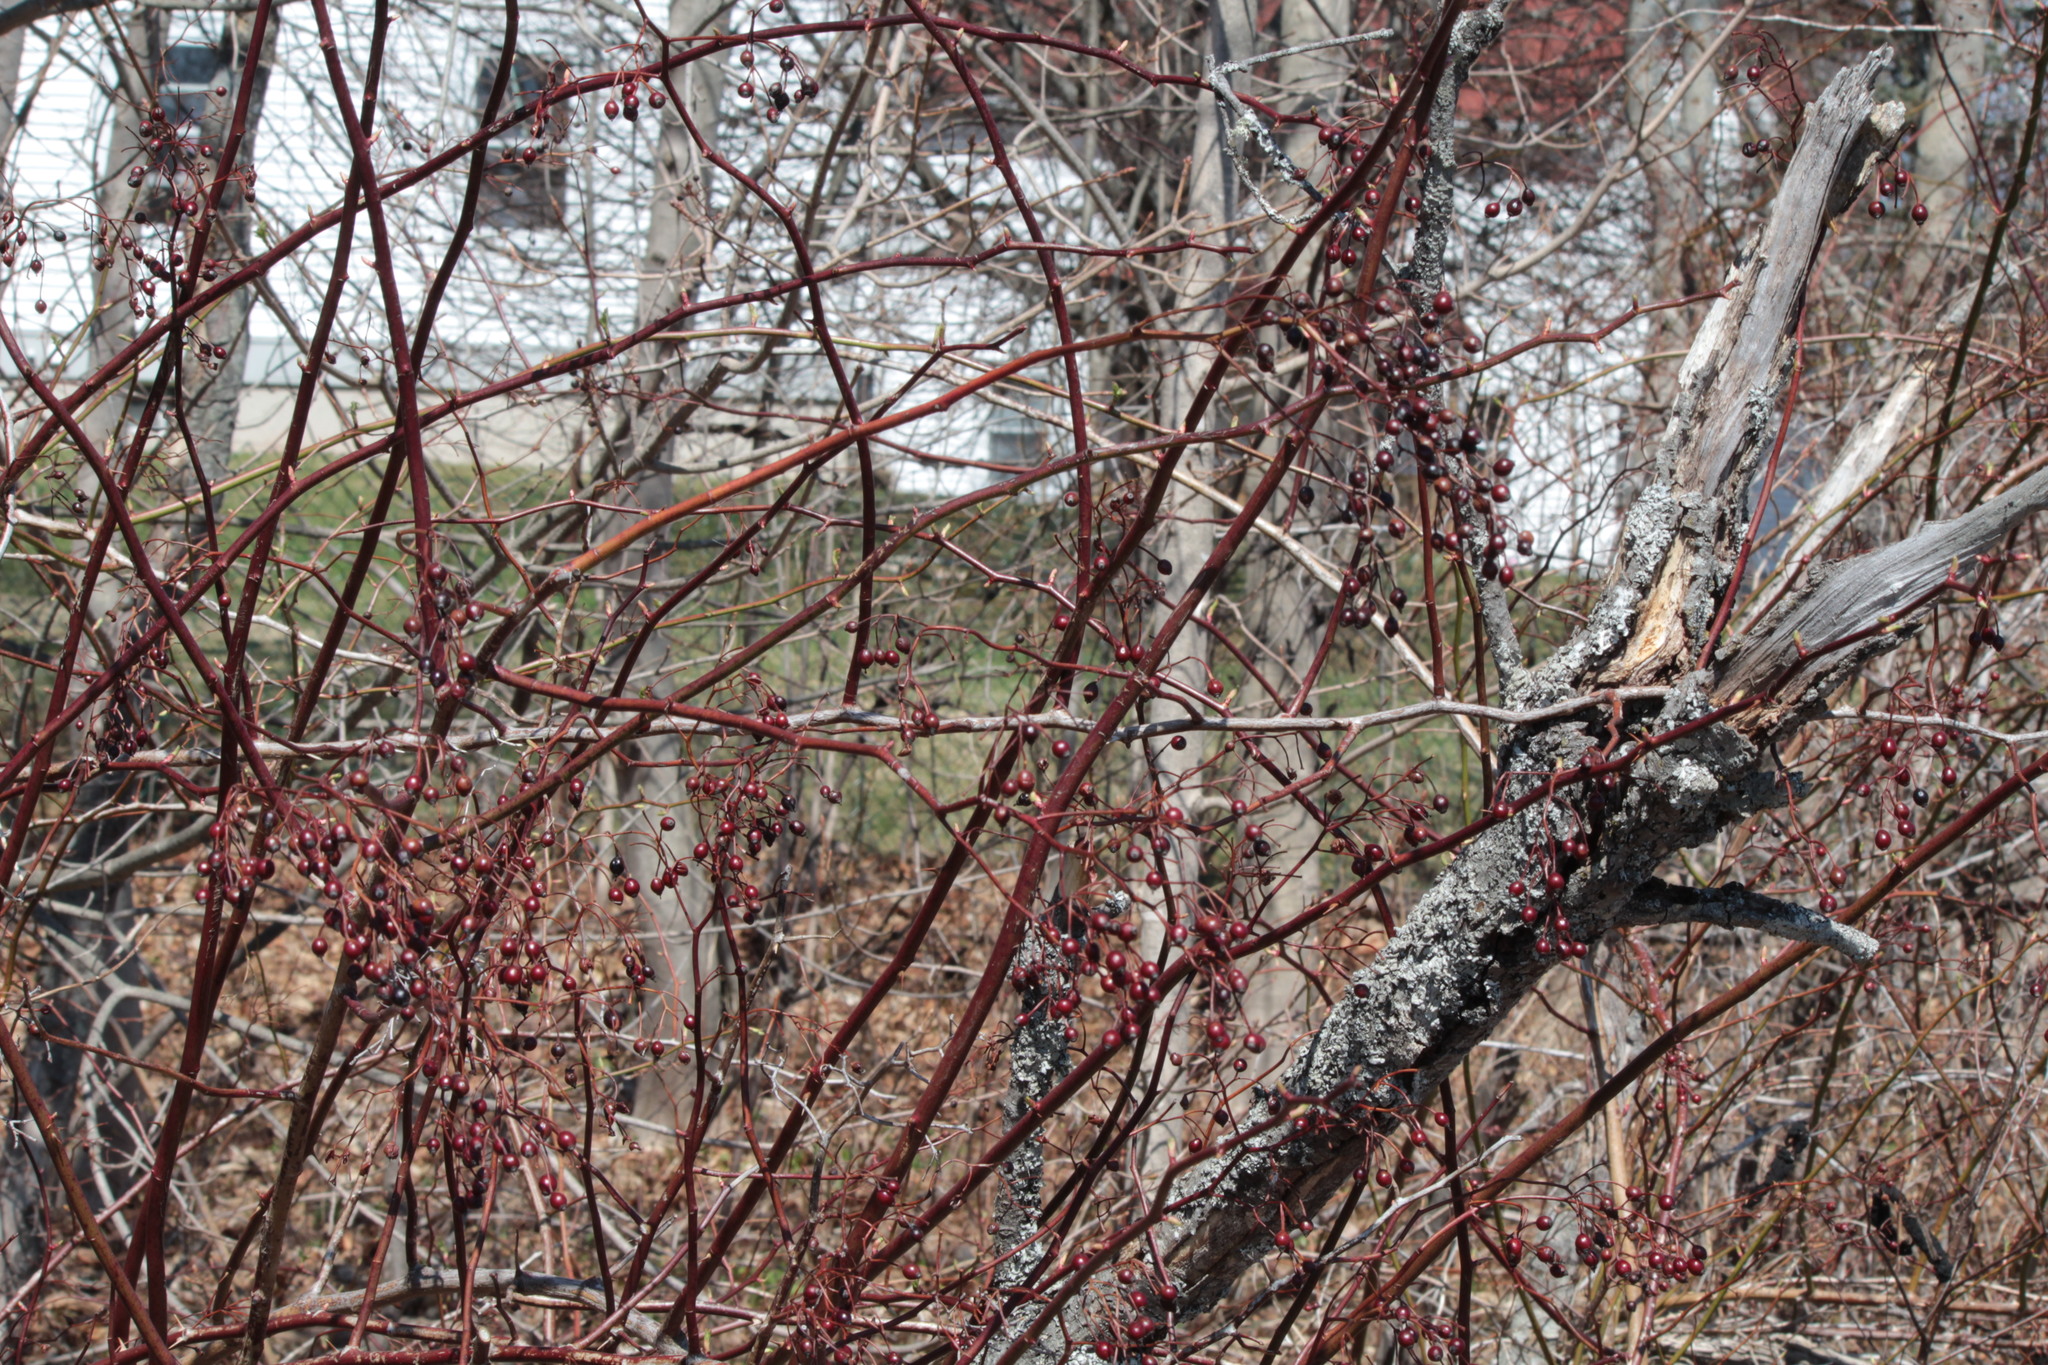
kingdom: Plantae
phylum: Tracheophyta
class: Magnoliopsida
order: Rosales
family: Rosaceae
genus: Rosa
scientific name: Rosa multiflora
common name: Multiflora rose
